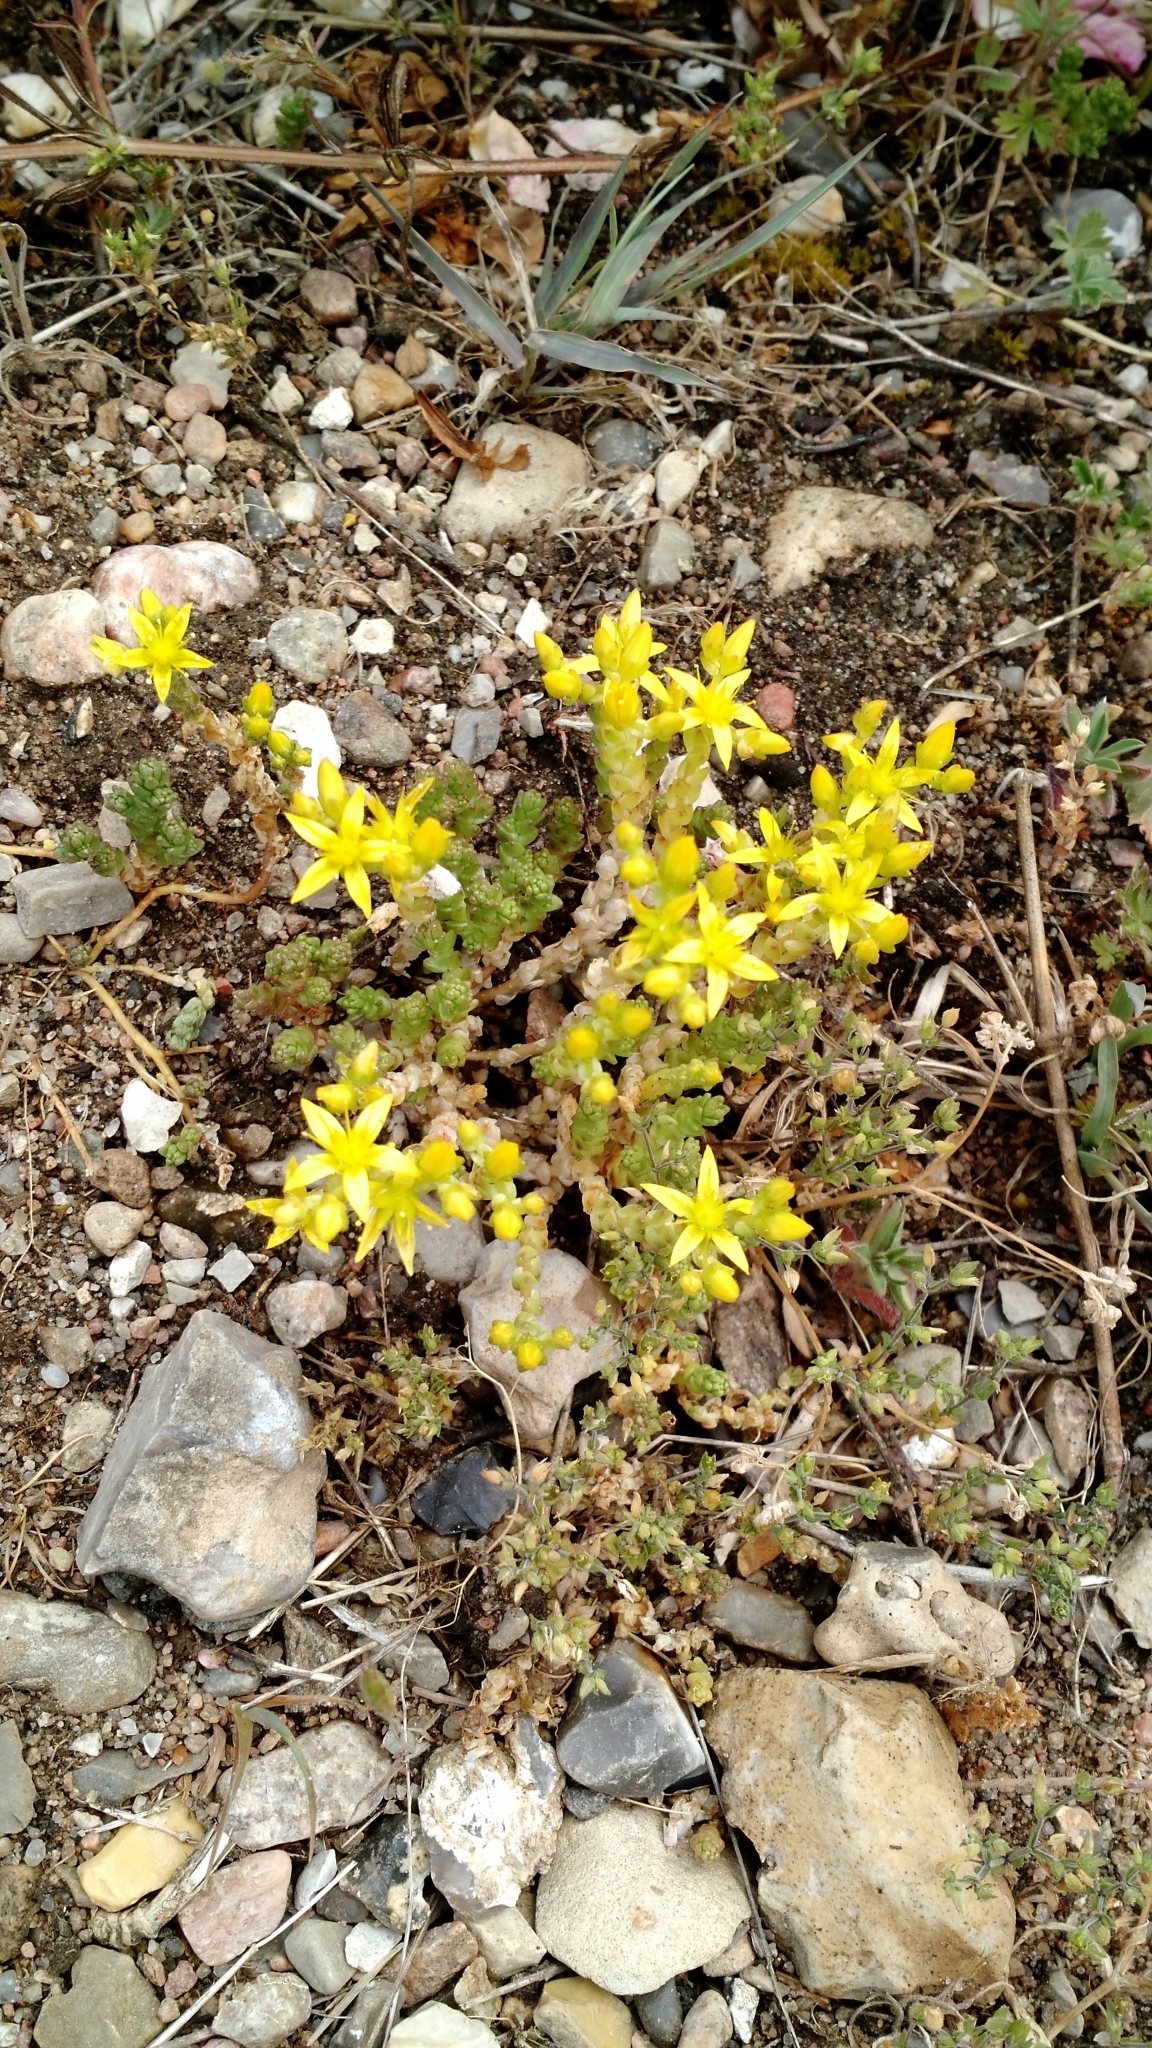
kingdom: Plantae
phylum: Tracheophyta
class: Magnoliopsida
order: Saxifragales
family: Crassulaceae
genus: Sedum
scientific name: Sedum acre
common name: Biting stonecrop
